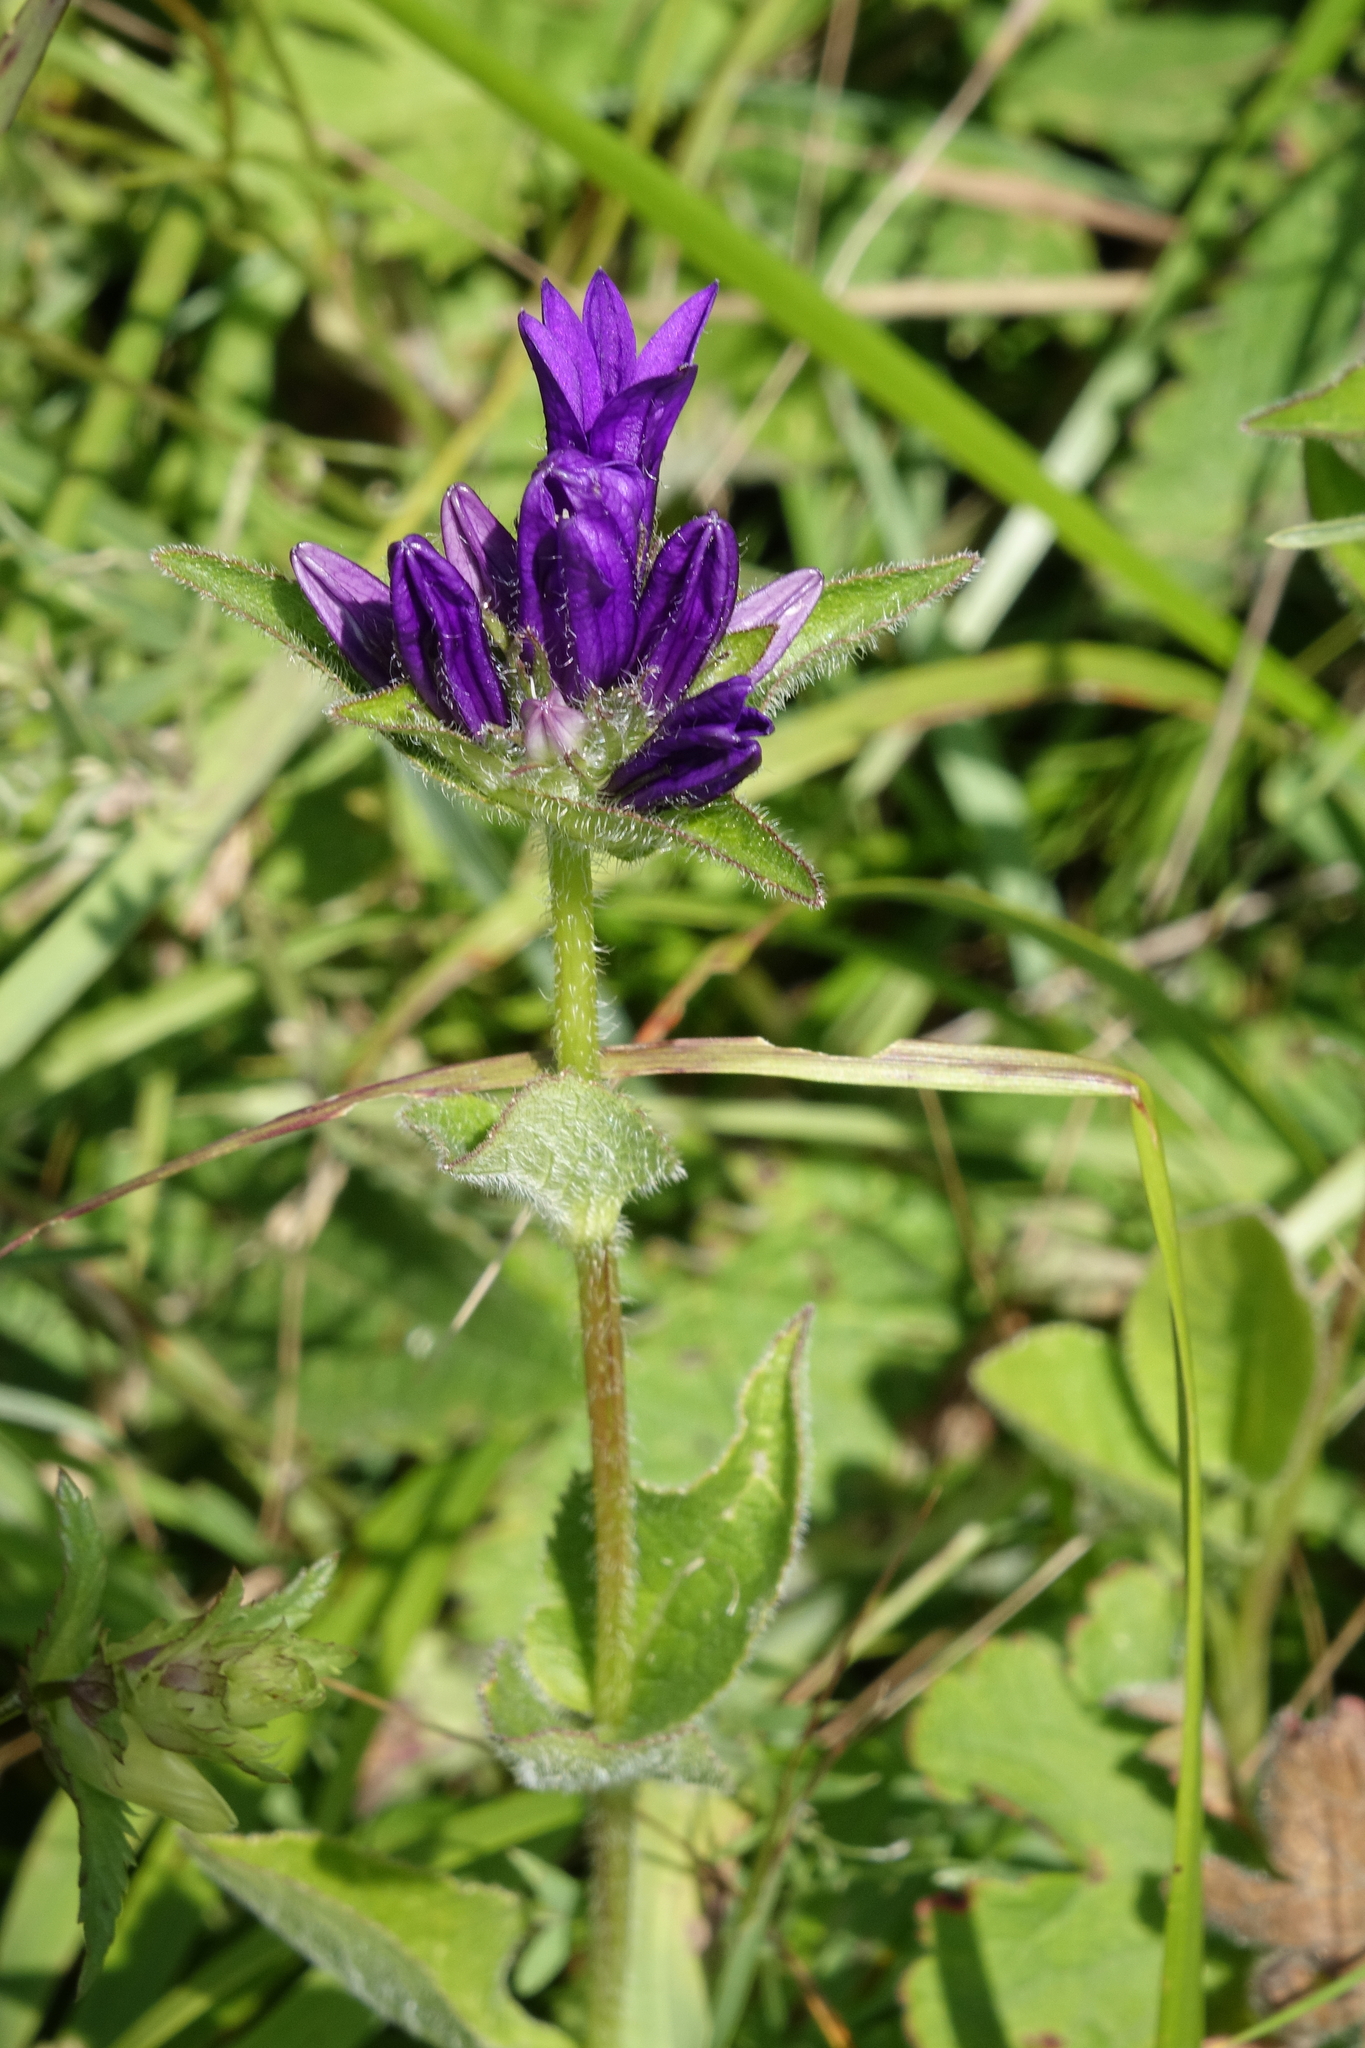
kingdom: Plantae
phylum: Tracheophyta
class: Magnoliopsida
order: Asterales
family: Campanulaceae
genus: Campanula
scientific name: Campanula glomerata
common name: Clustered bellflower
